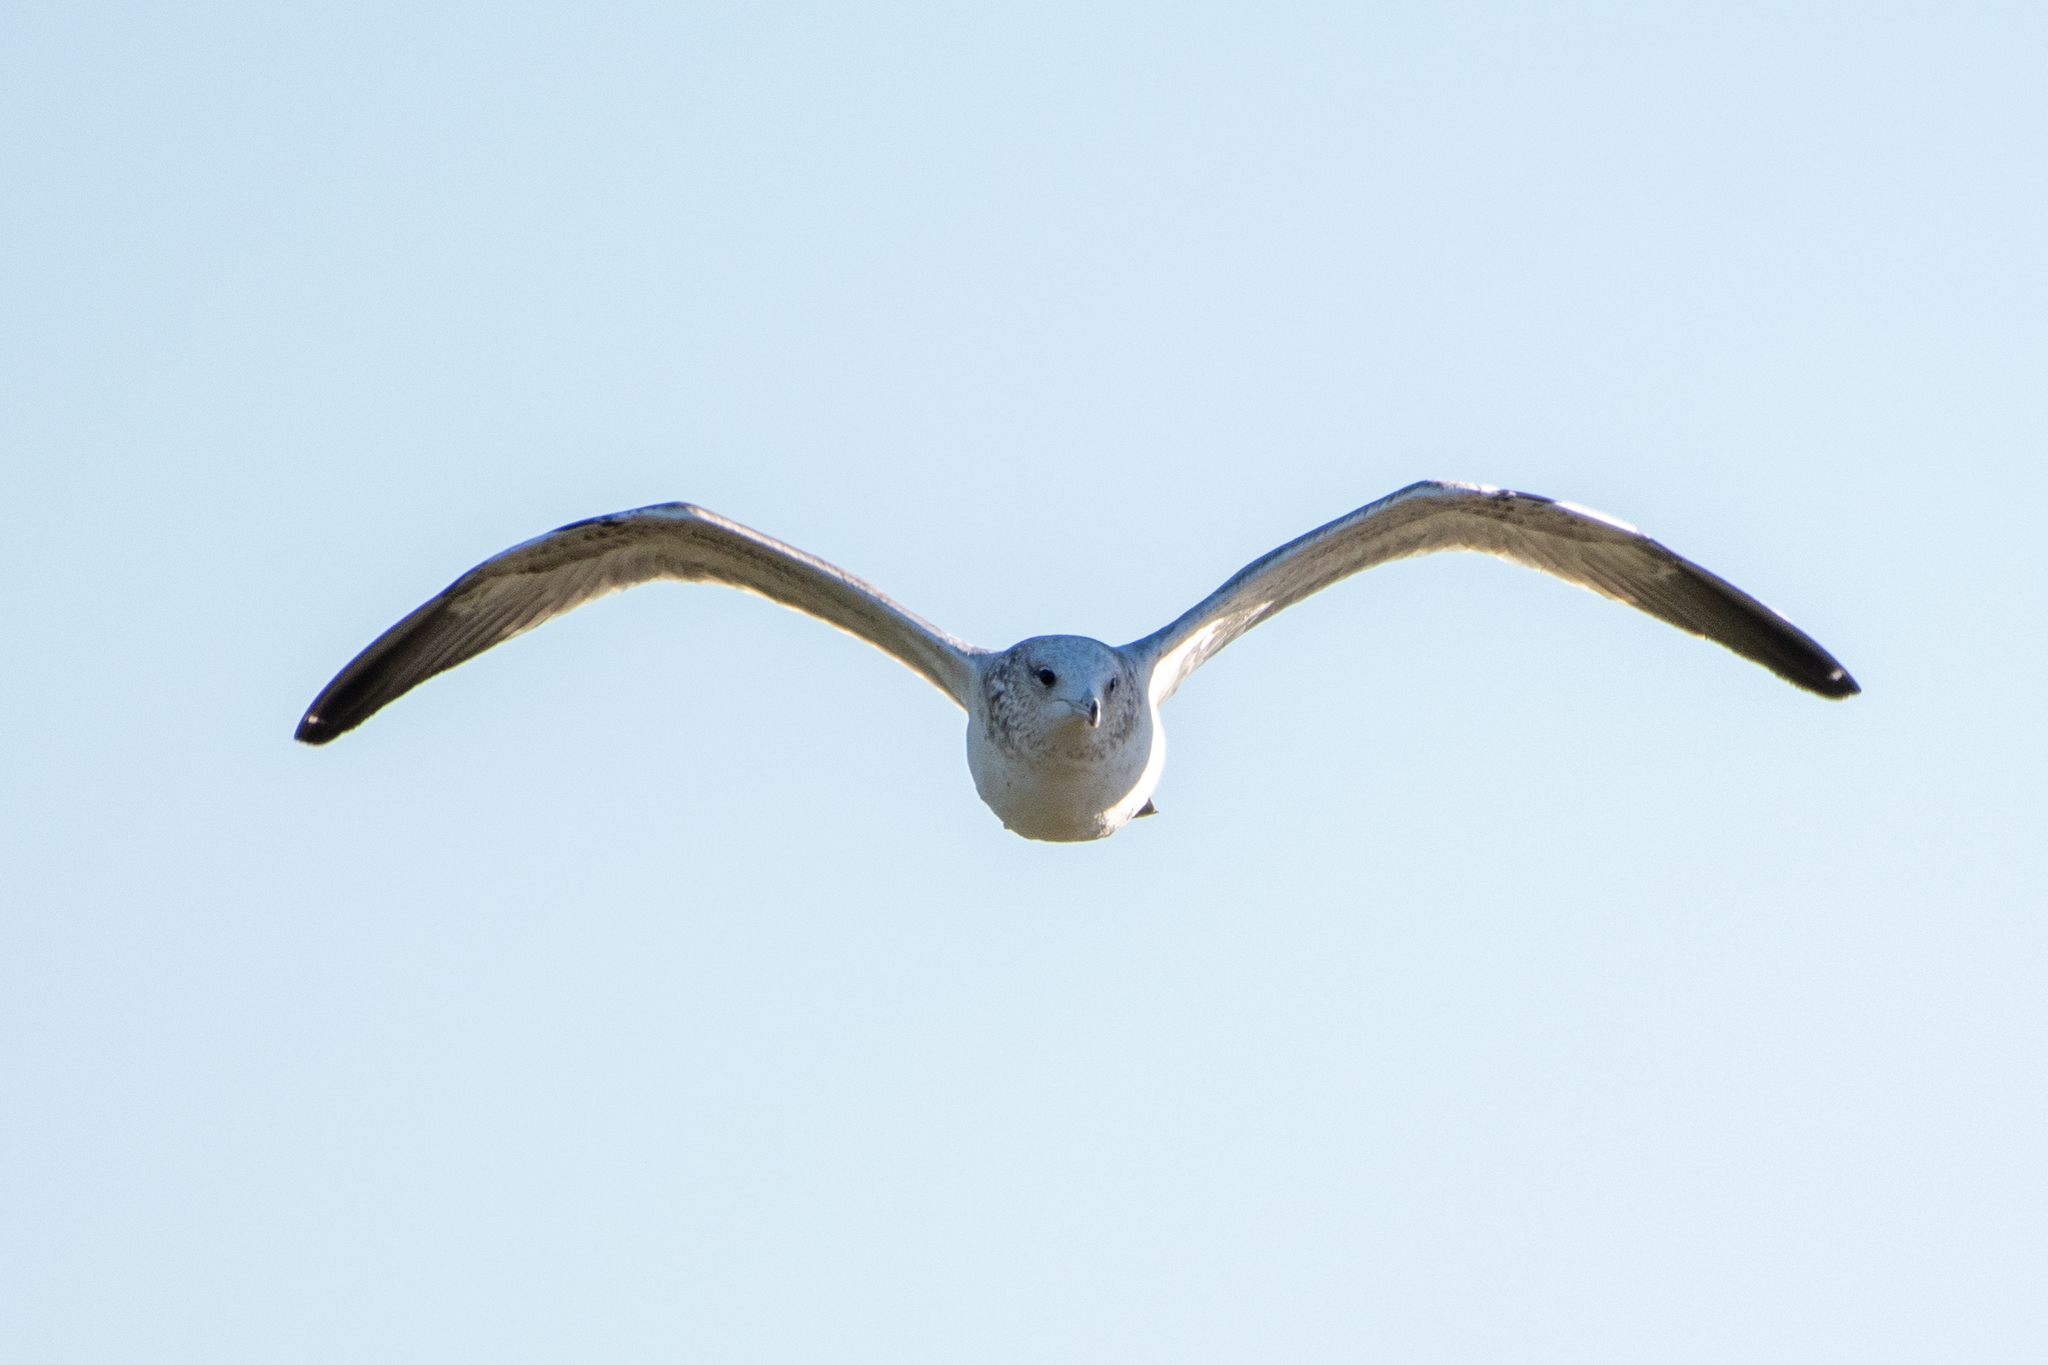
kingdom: Animalia
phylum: Chordata
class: Aves
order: Charadriiformes
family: Laridae
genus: Larus
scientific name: Larus californicus
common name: California gull
